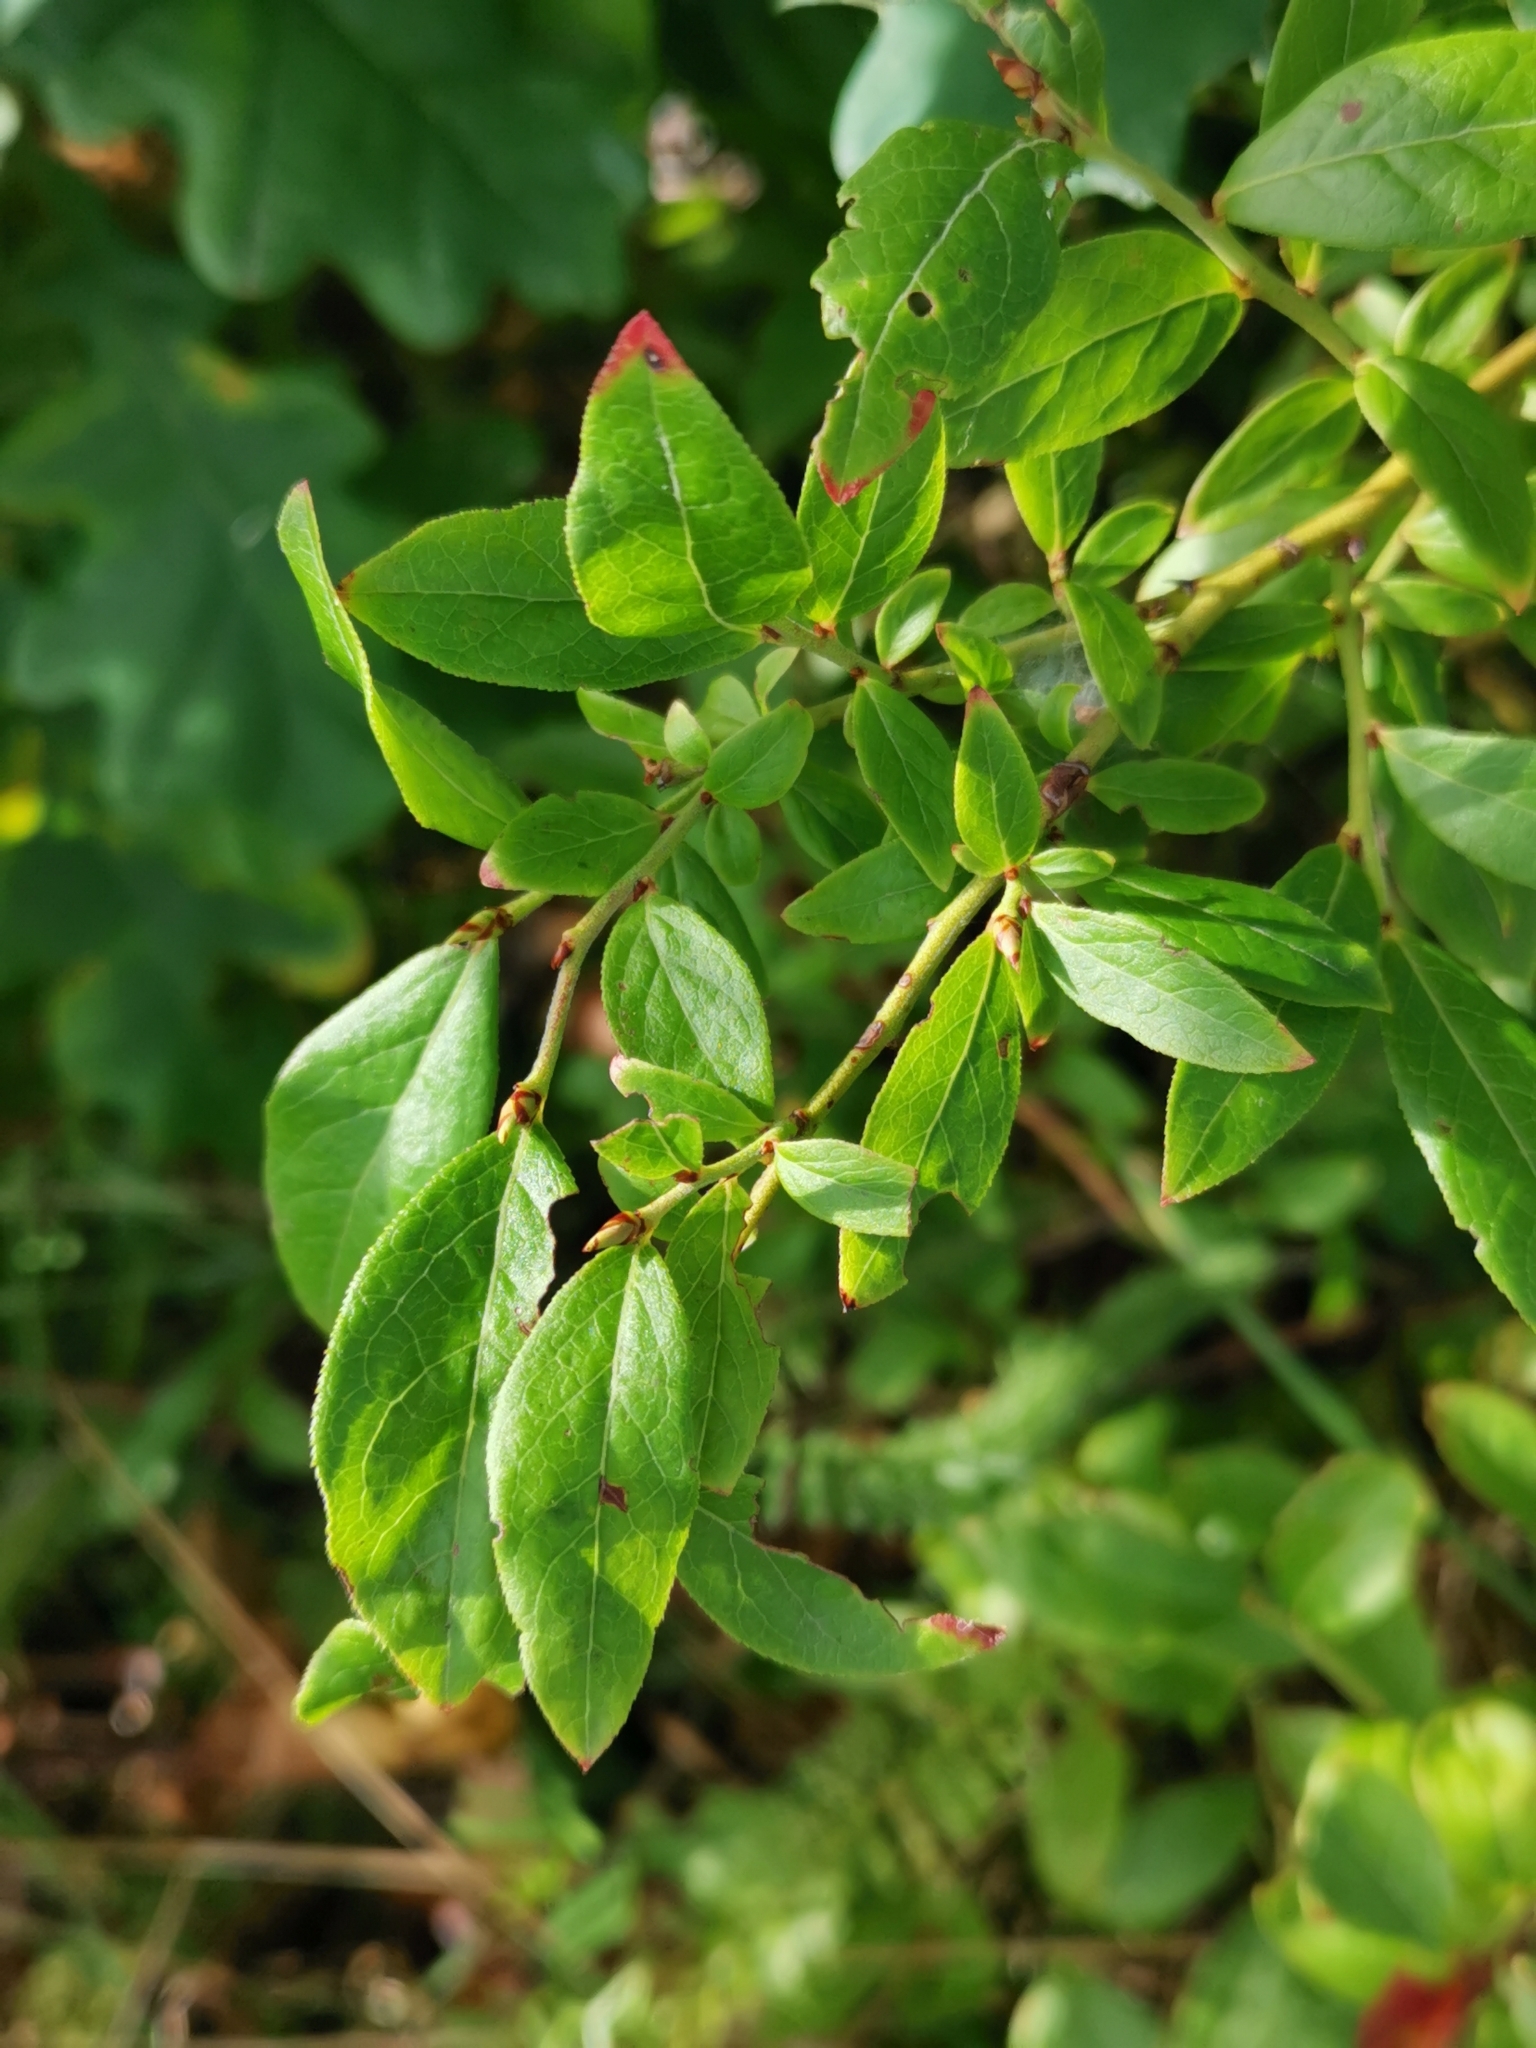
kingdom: Plantae
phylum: Tracheophyta
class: Magnoliopsida
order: Ericales
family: Ericaceae
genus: Vaccinium
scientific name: Vaccinium angustifolium
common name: Early lowbush blueberry
